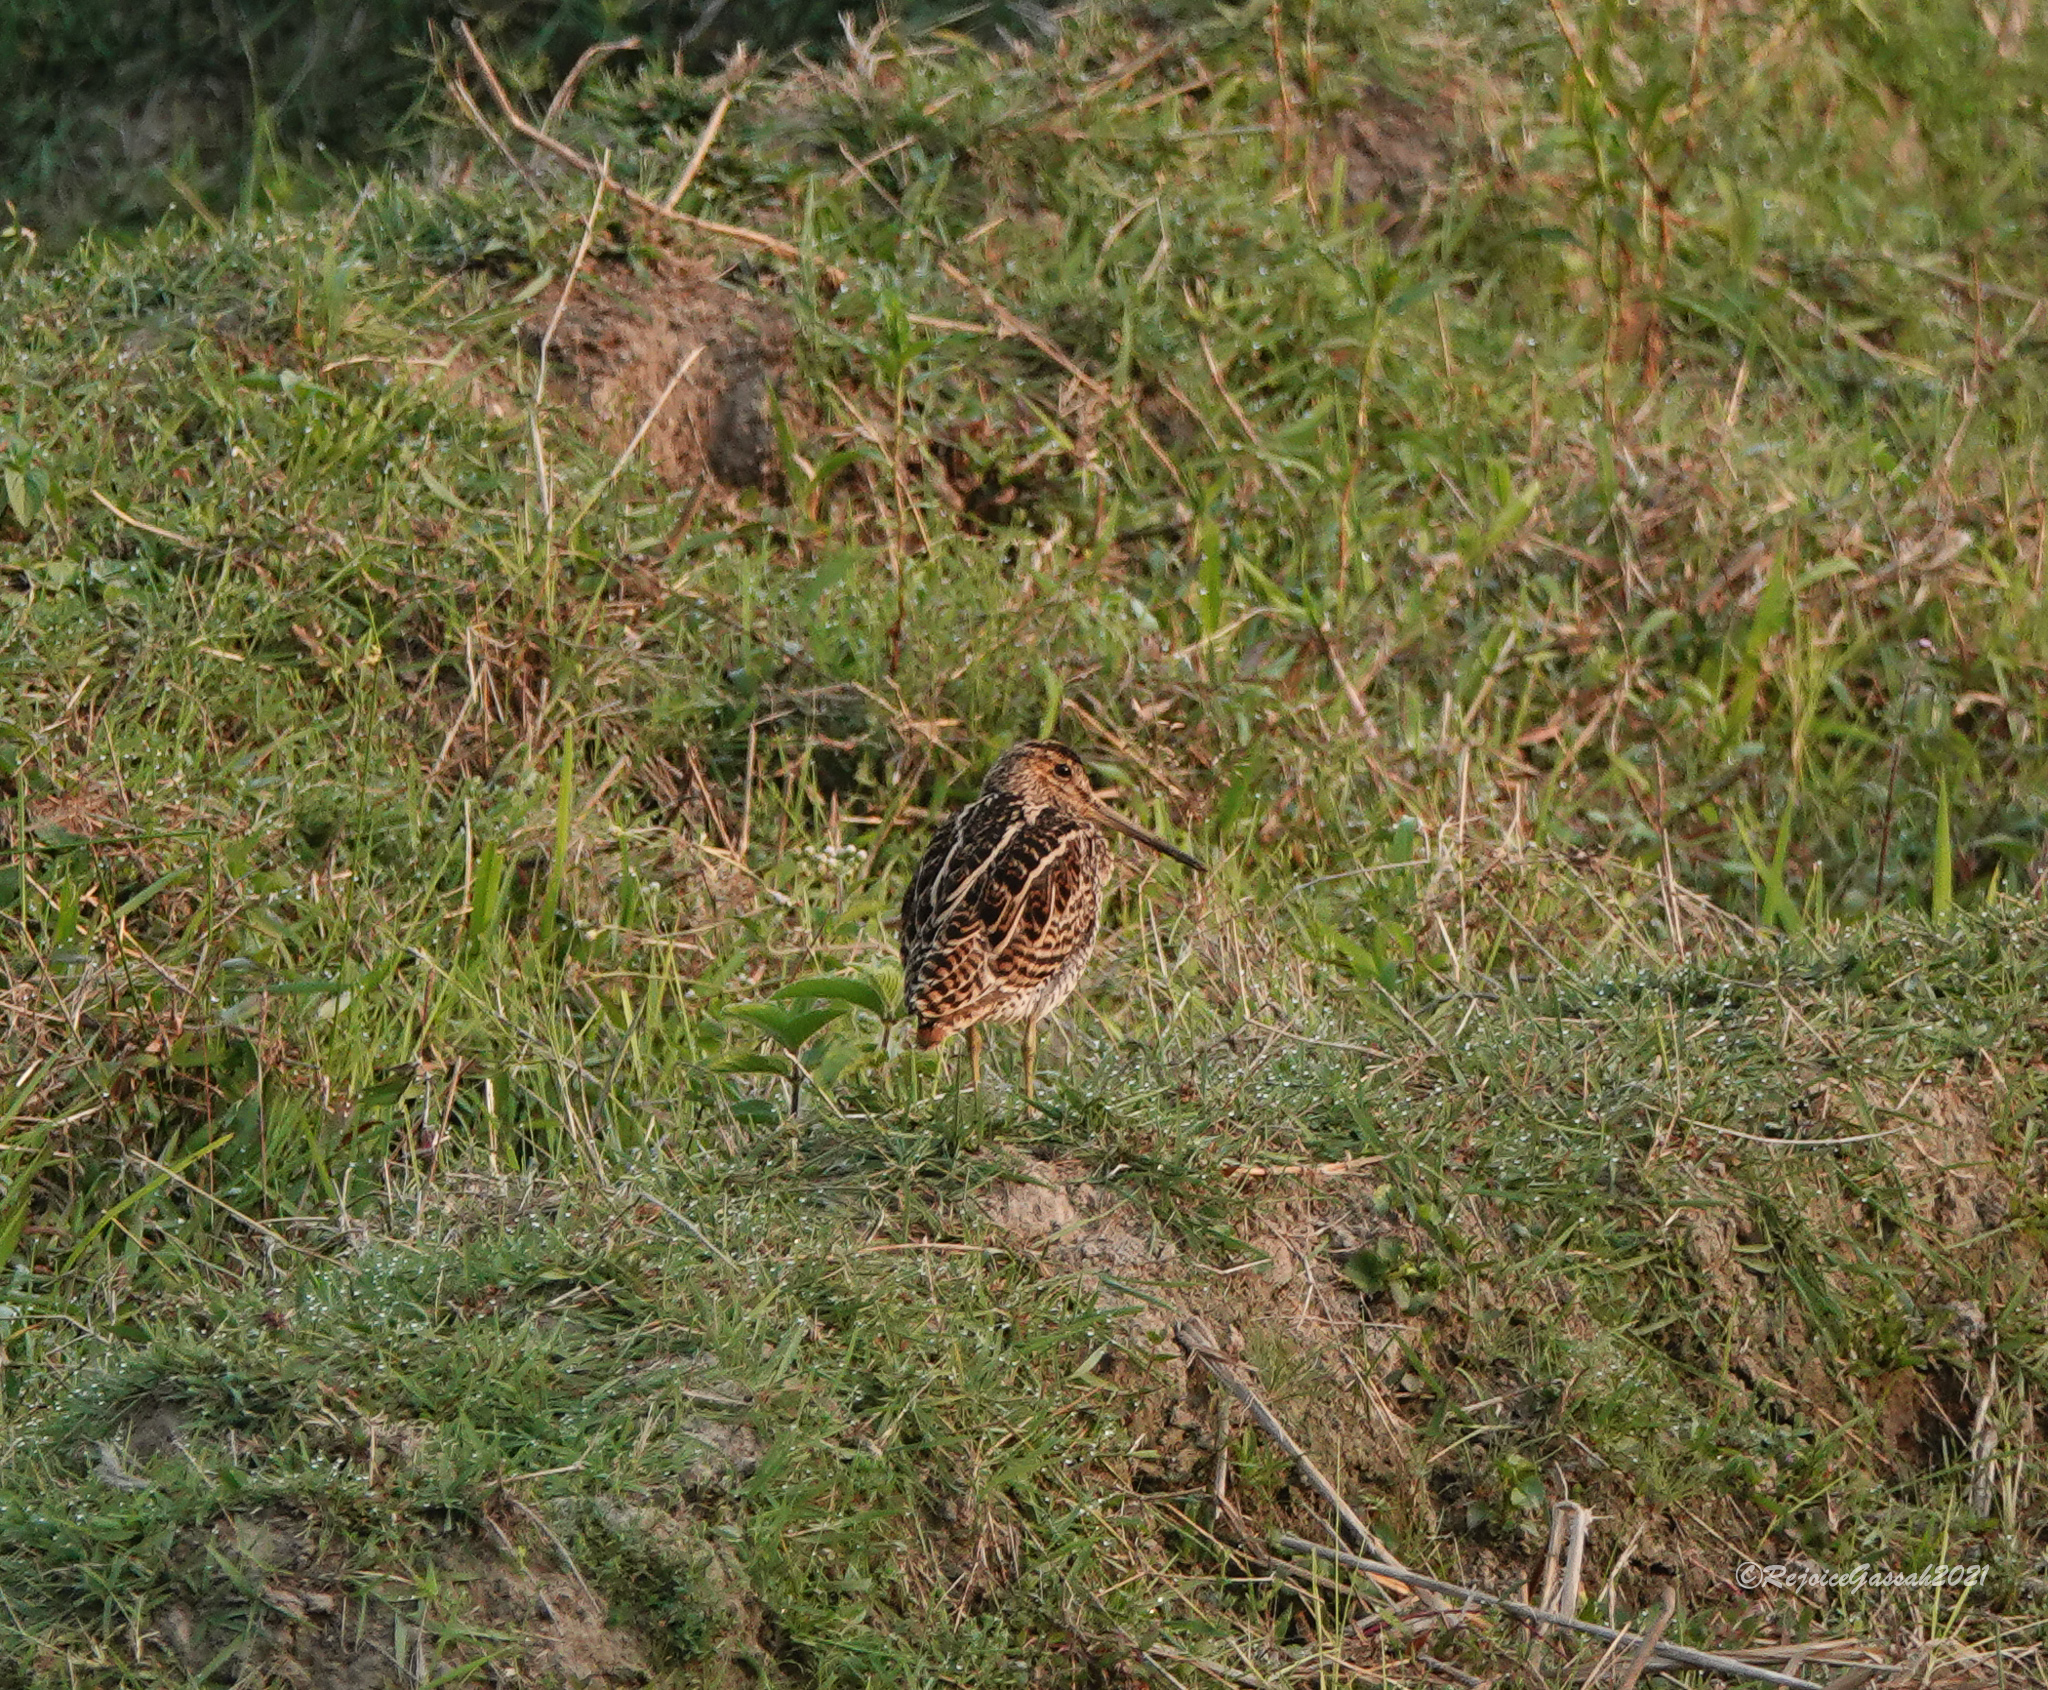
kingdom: Animalia
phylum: Chordata
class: Aves
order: Charadriiformes
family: Scolopacidae
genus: Gallinago
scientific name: Gallinago stenura
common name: Pin-tailed snipe
